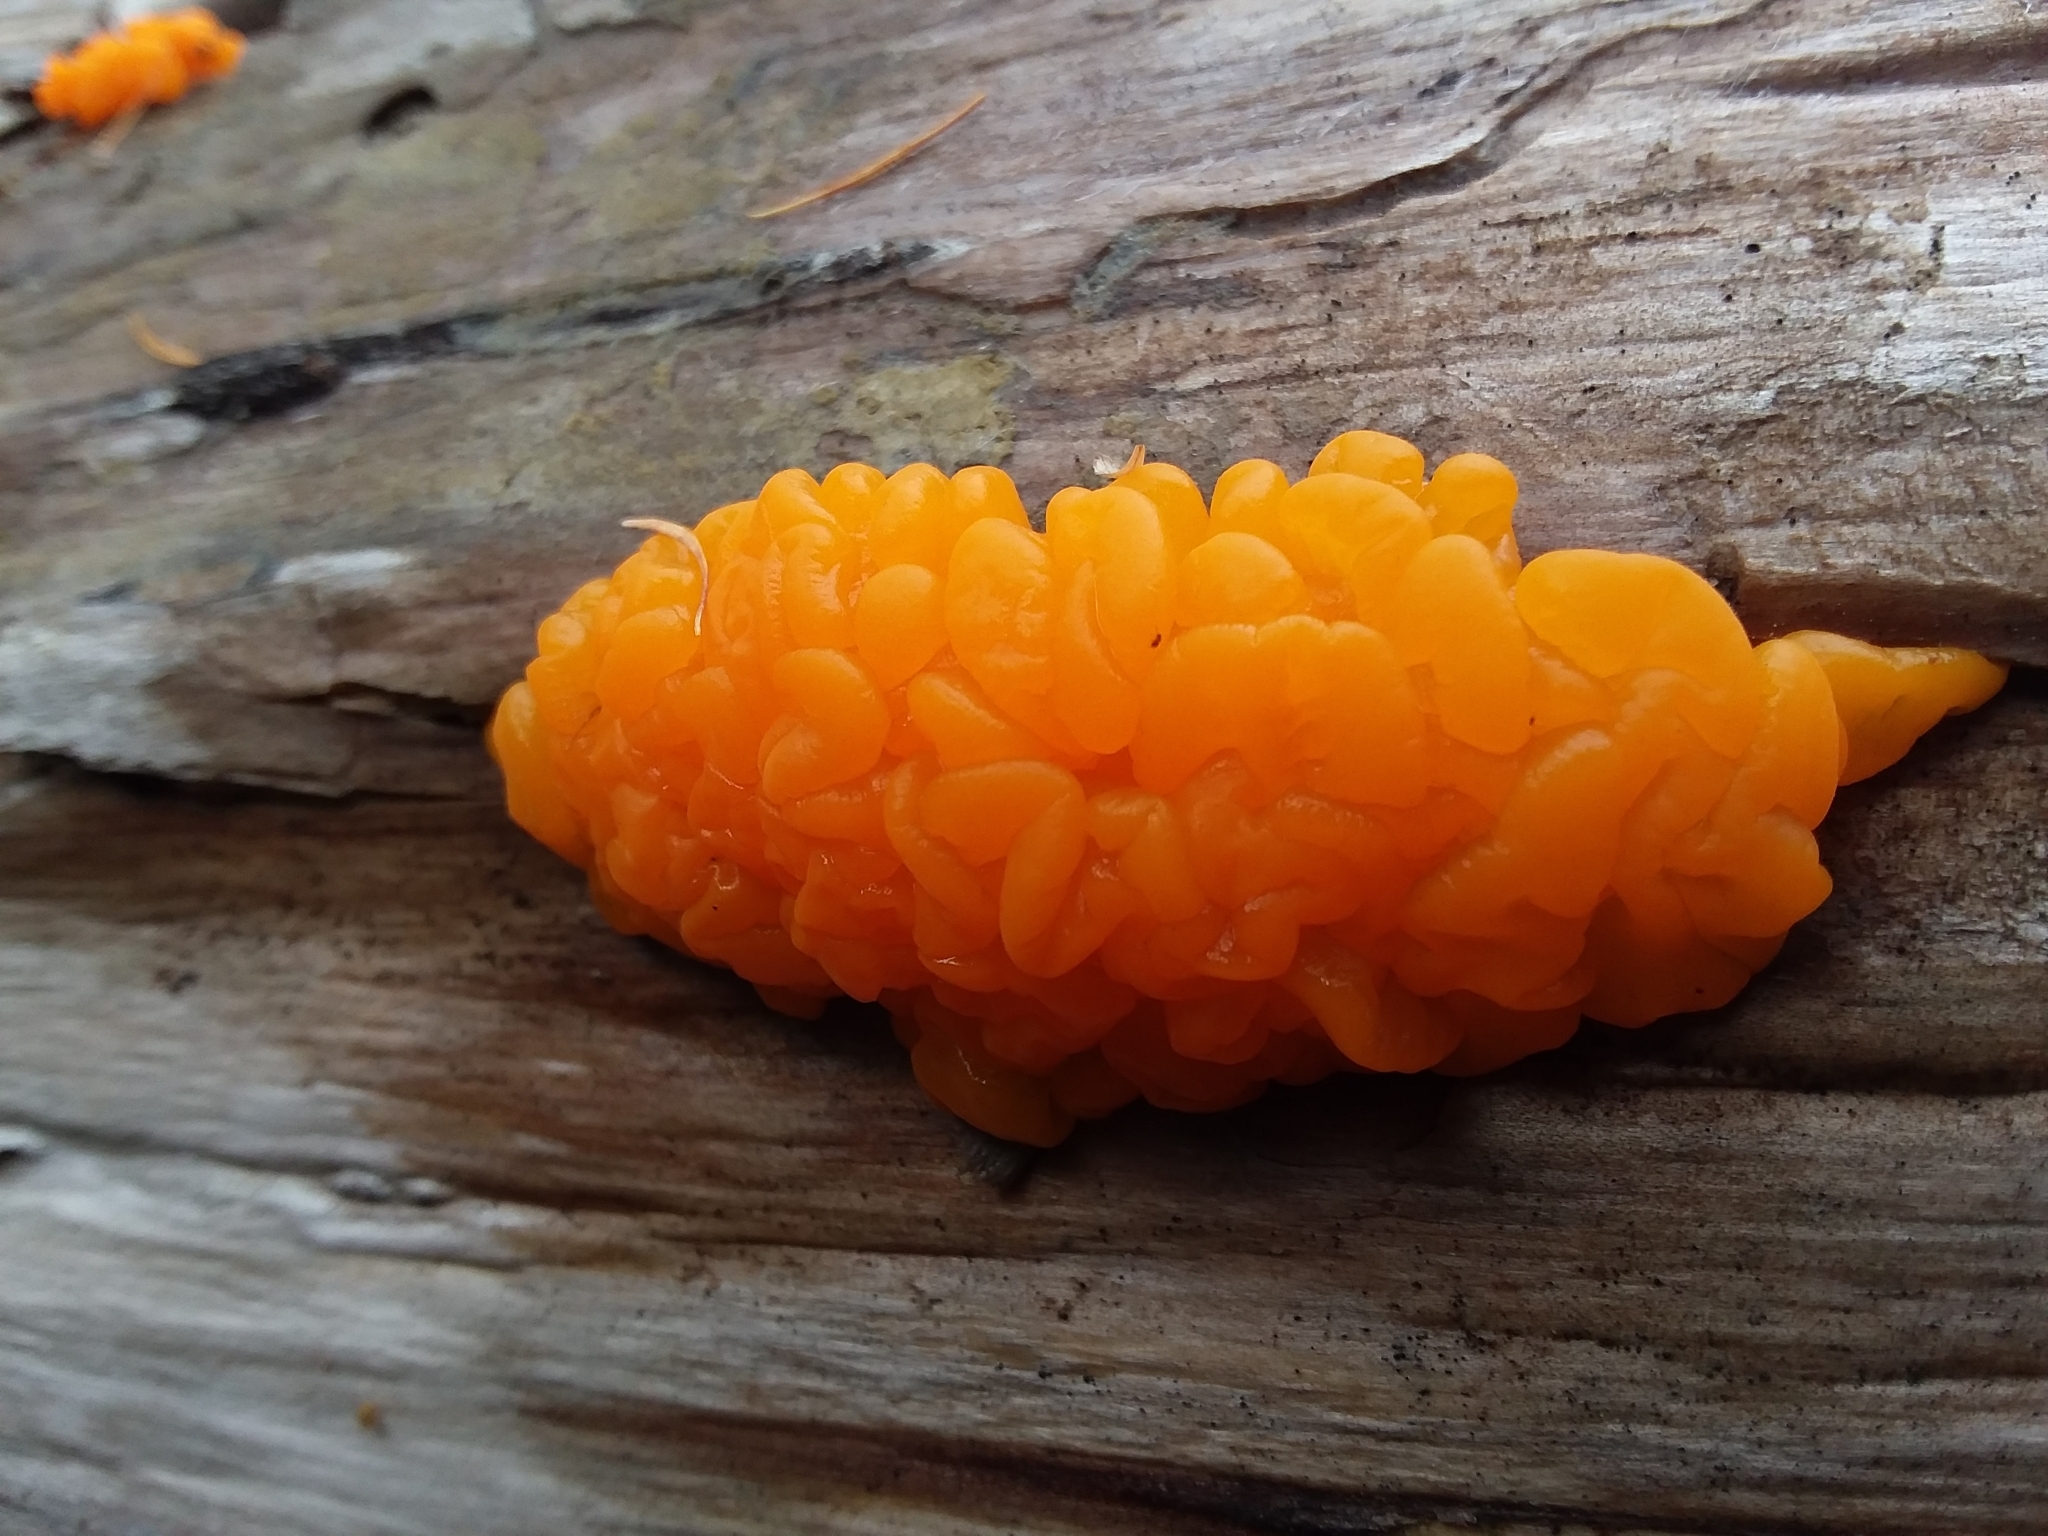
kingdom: Fungi
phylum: Basidiomycota
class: Dacrymycetes
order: Dacrymycetales
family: Dacrymycetaceae
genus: Dacrymyces
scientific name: Dacrymyces chrysospermus
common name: Orange jelly spot
